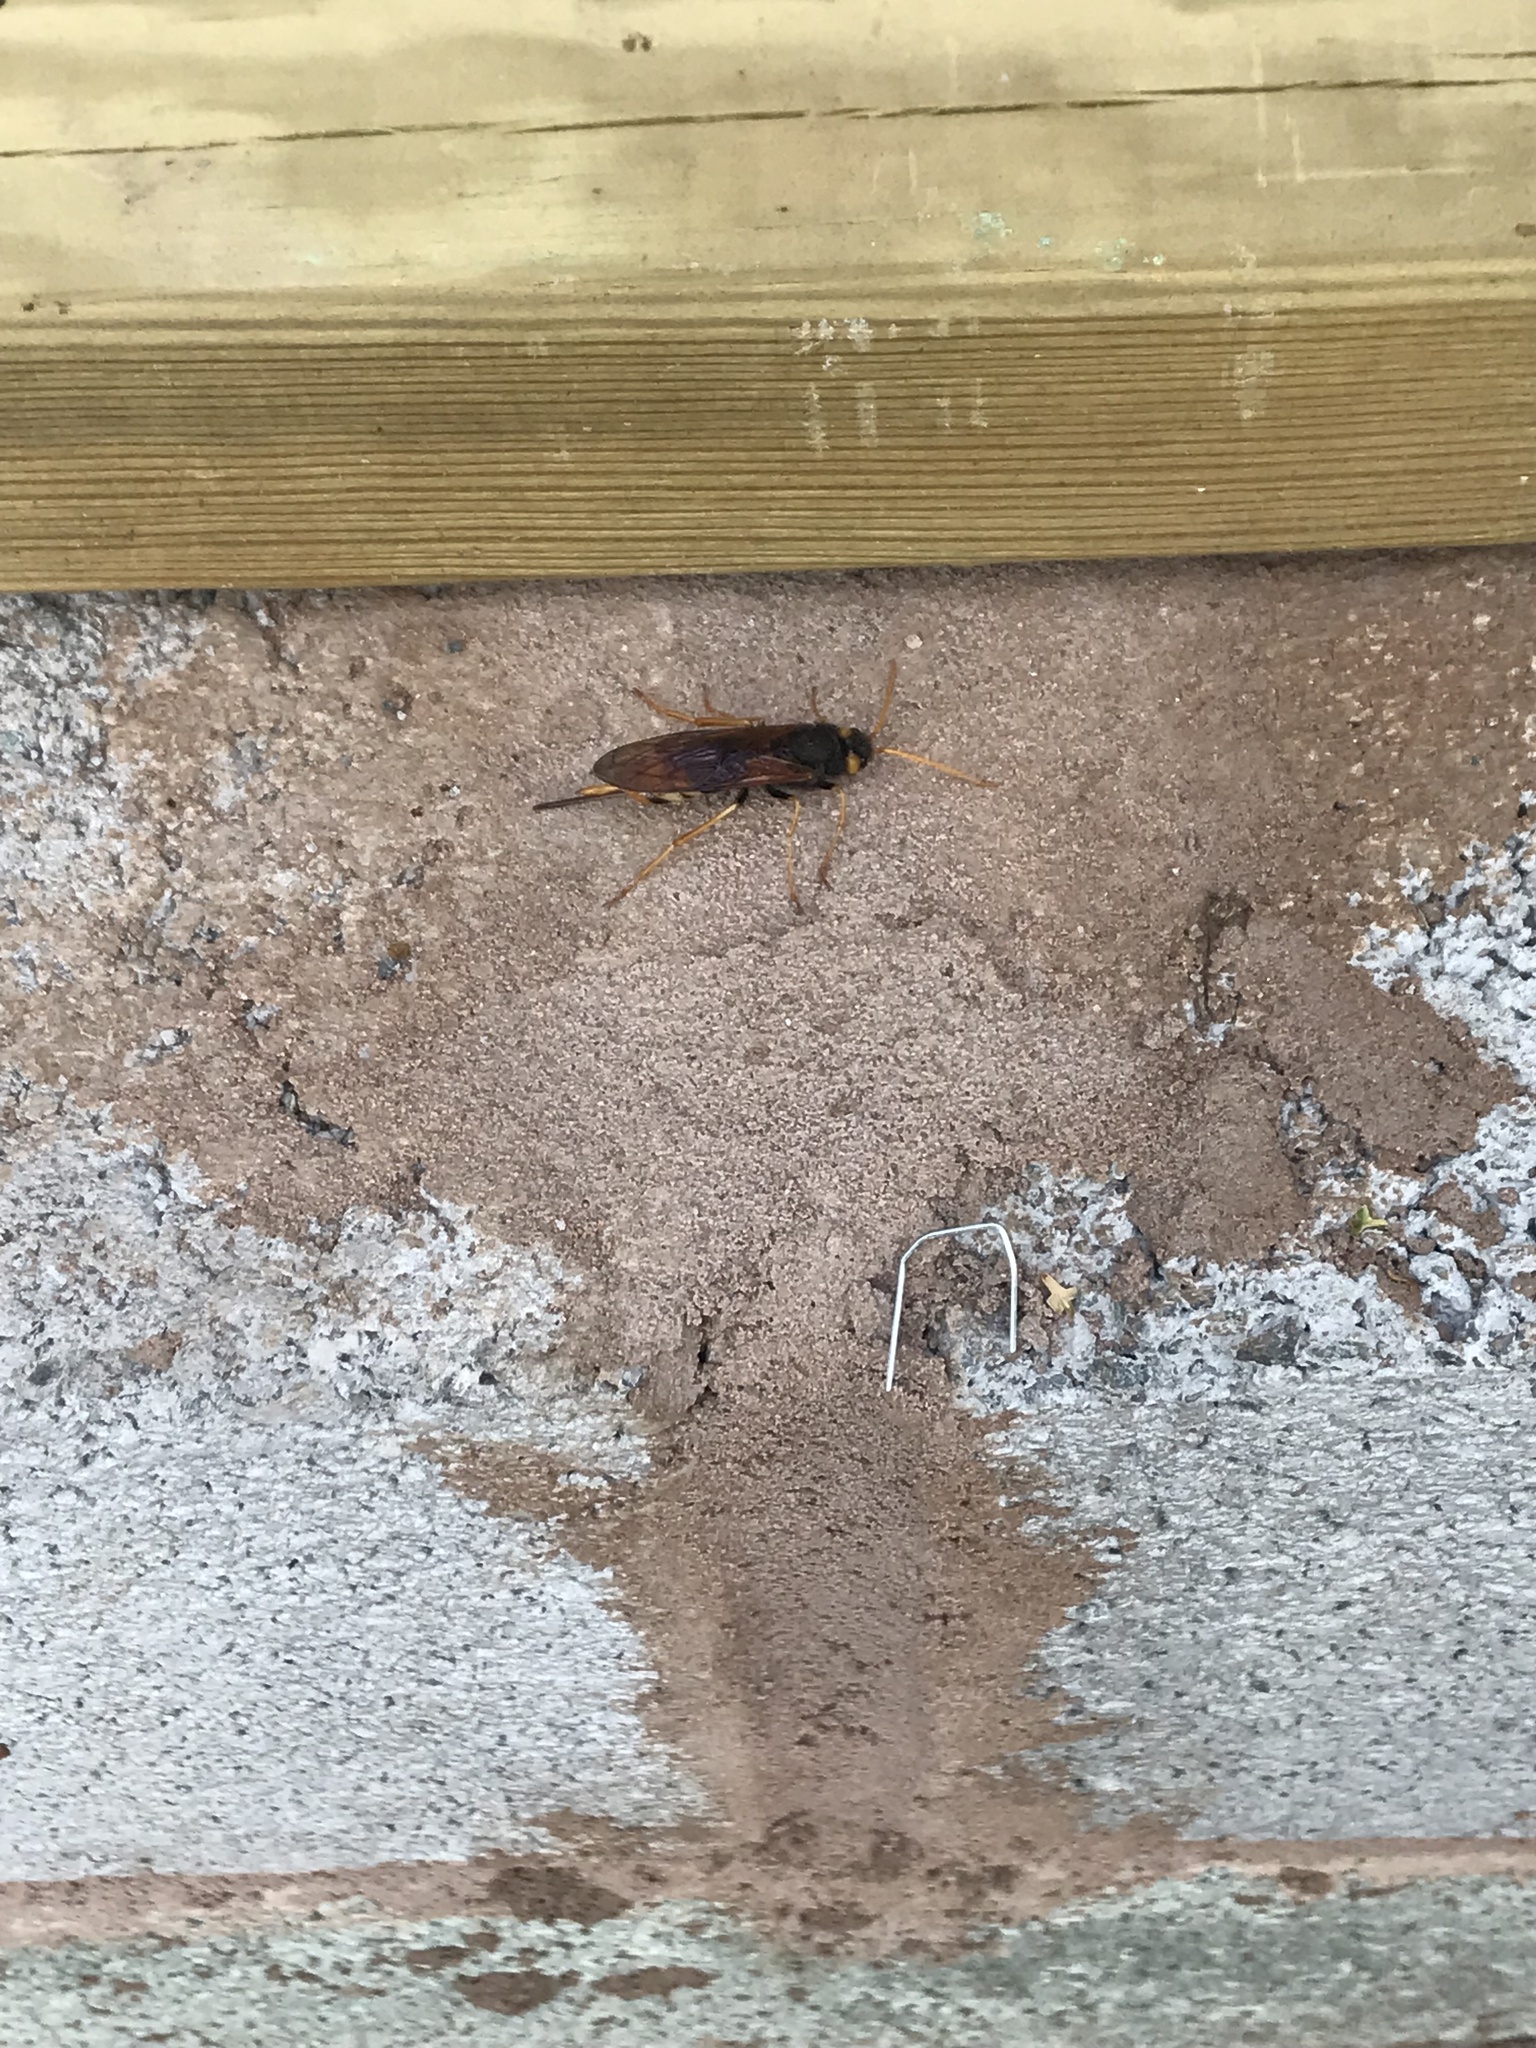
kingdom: Animalia
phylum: Arthropoda
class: Insecta
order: Hymenoptera
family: Siricidae
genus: Urocerus
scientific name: Urocerus gigas
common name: Giant woodwasp
